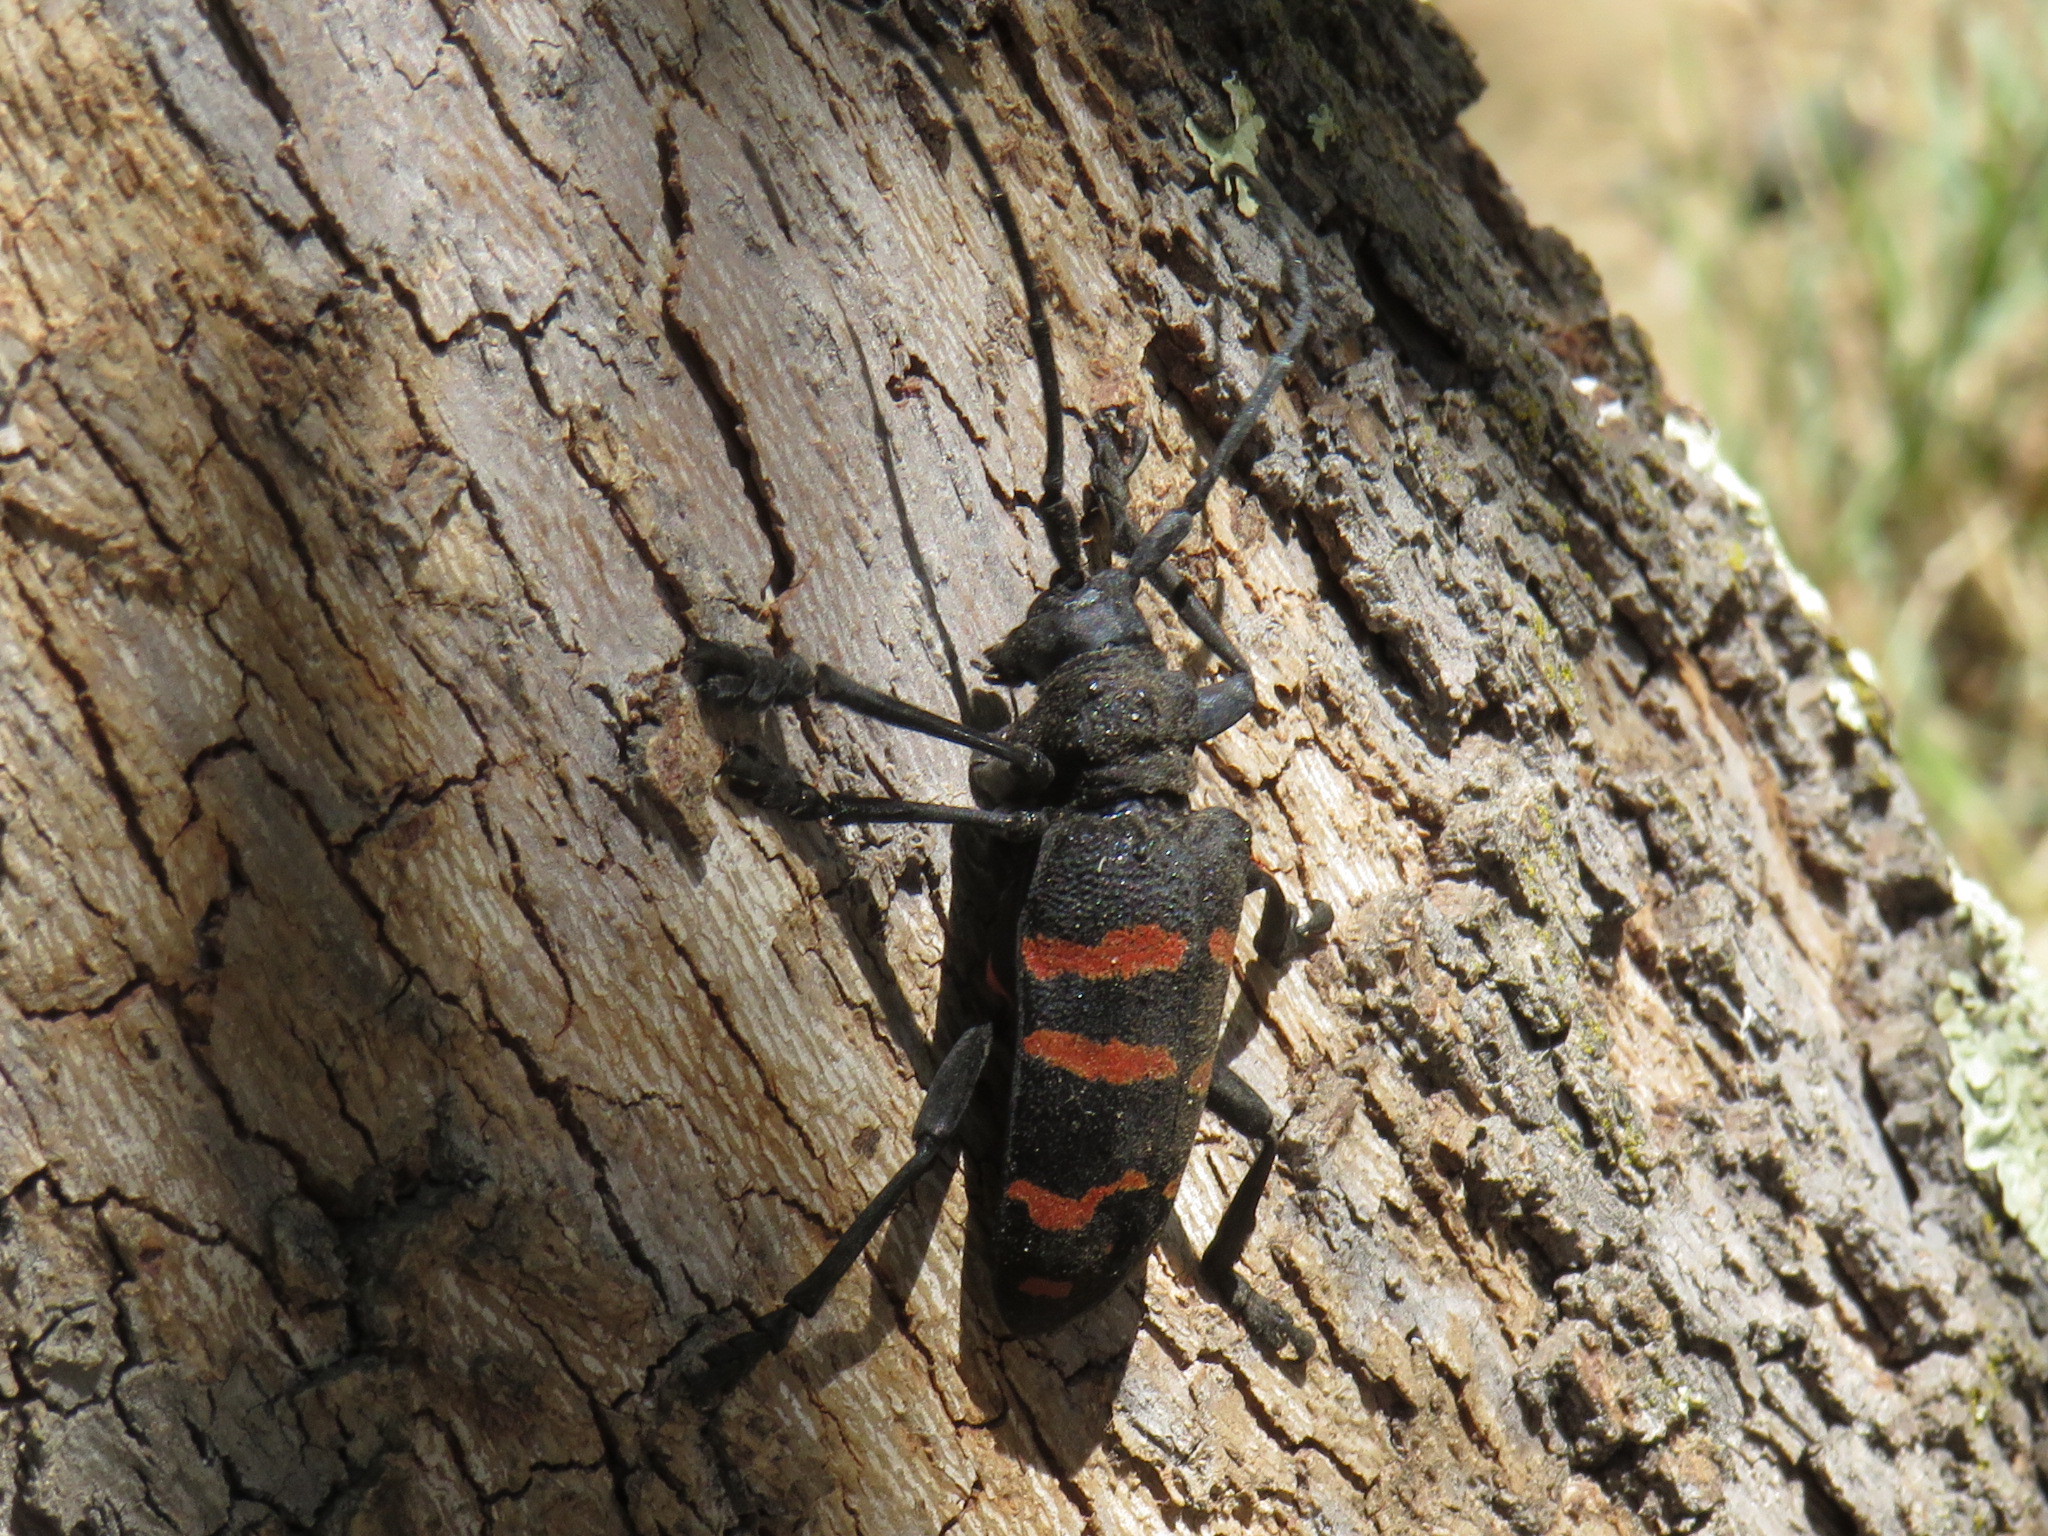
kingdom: Animalia
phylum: Arthropoda
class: Insecta
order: Coleoptera
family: Cerambycidae
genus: Ceroplesis
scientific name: Ceroplesis capensis
